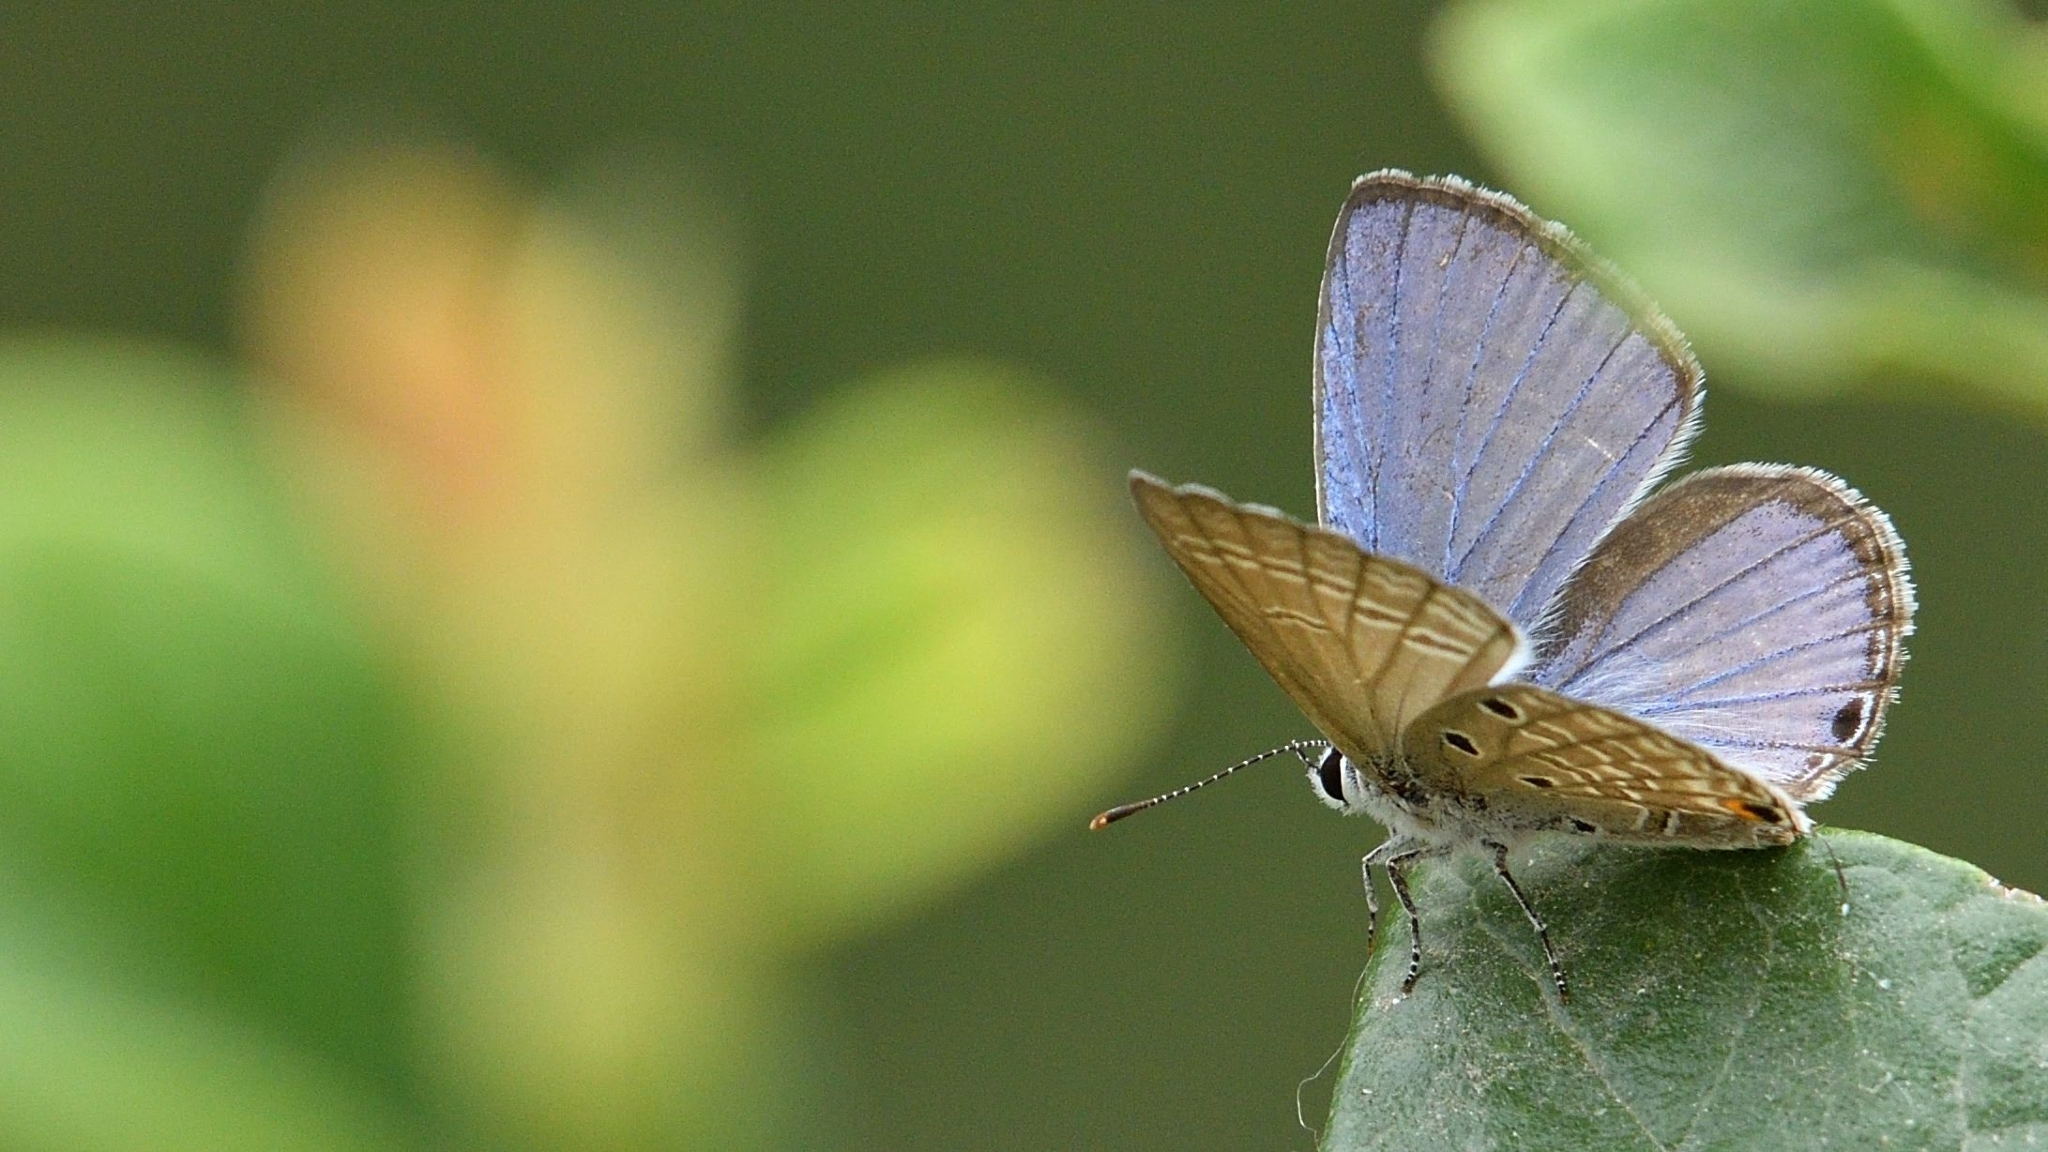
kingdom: Animalia
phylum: Arthropoda
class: Insecta
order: Lepidoptera
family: Lycaenidae
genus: Luthrodes
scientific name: Luthrodes pandava
